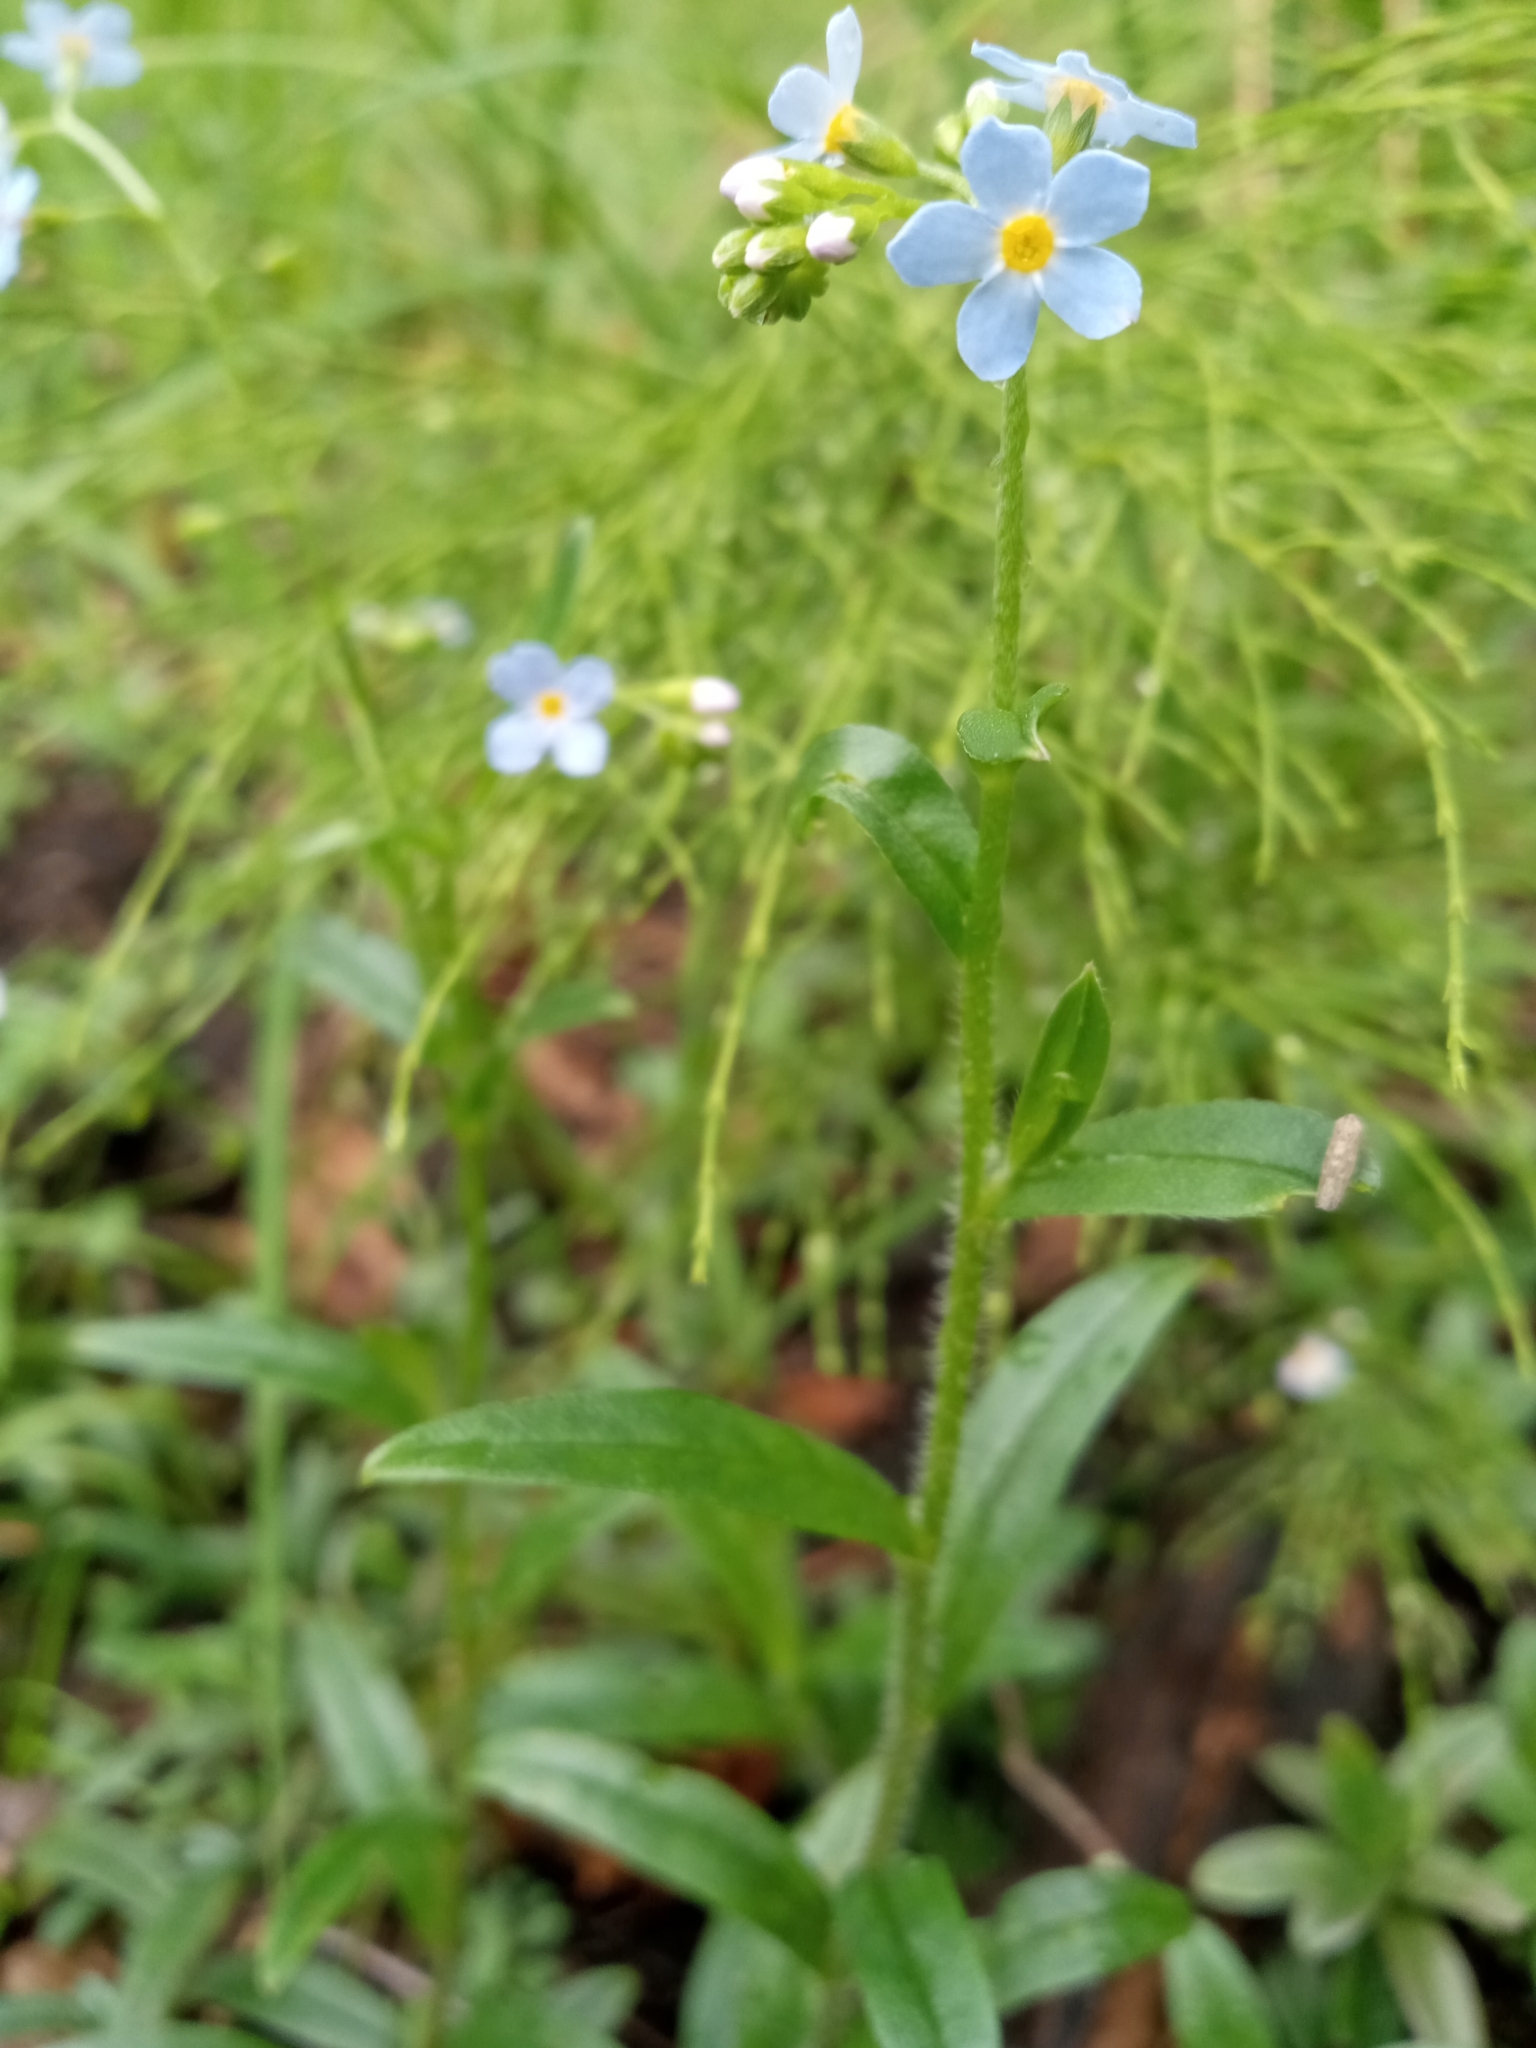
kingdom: Plantae
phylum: Tracheophyta
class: Magnoliopsida
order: Boraginales
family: Boraginaceae
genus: Myosotis
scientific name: Myosotis scorpioides
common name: Water forget-me-not
